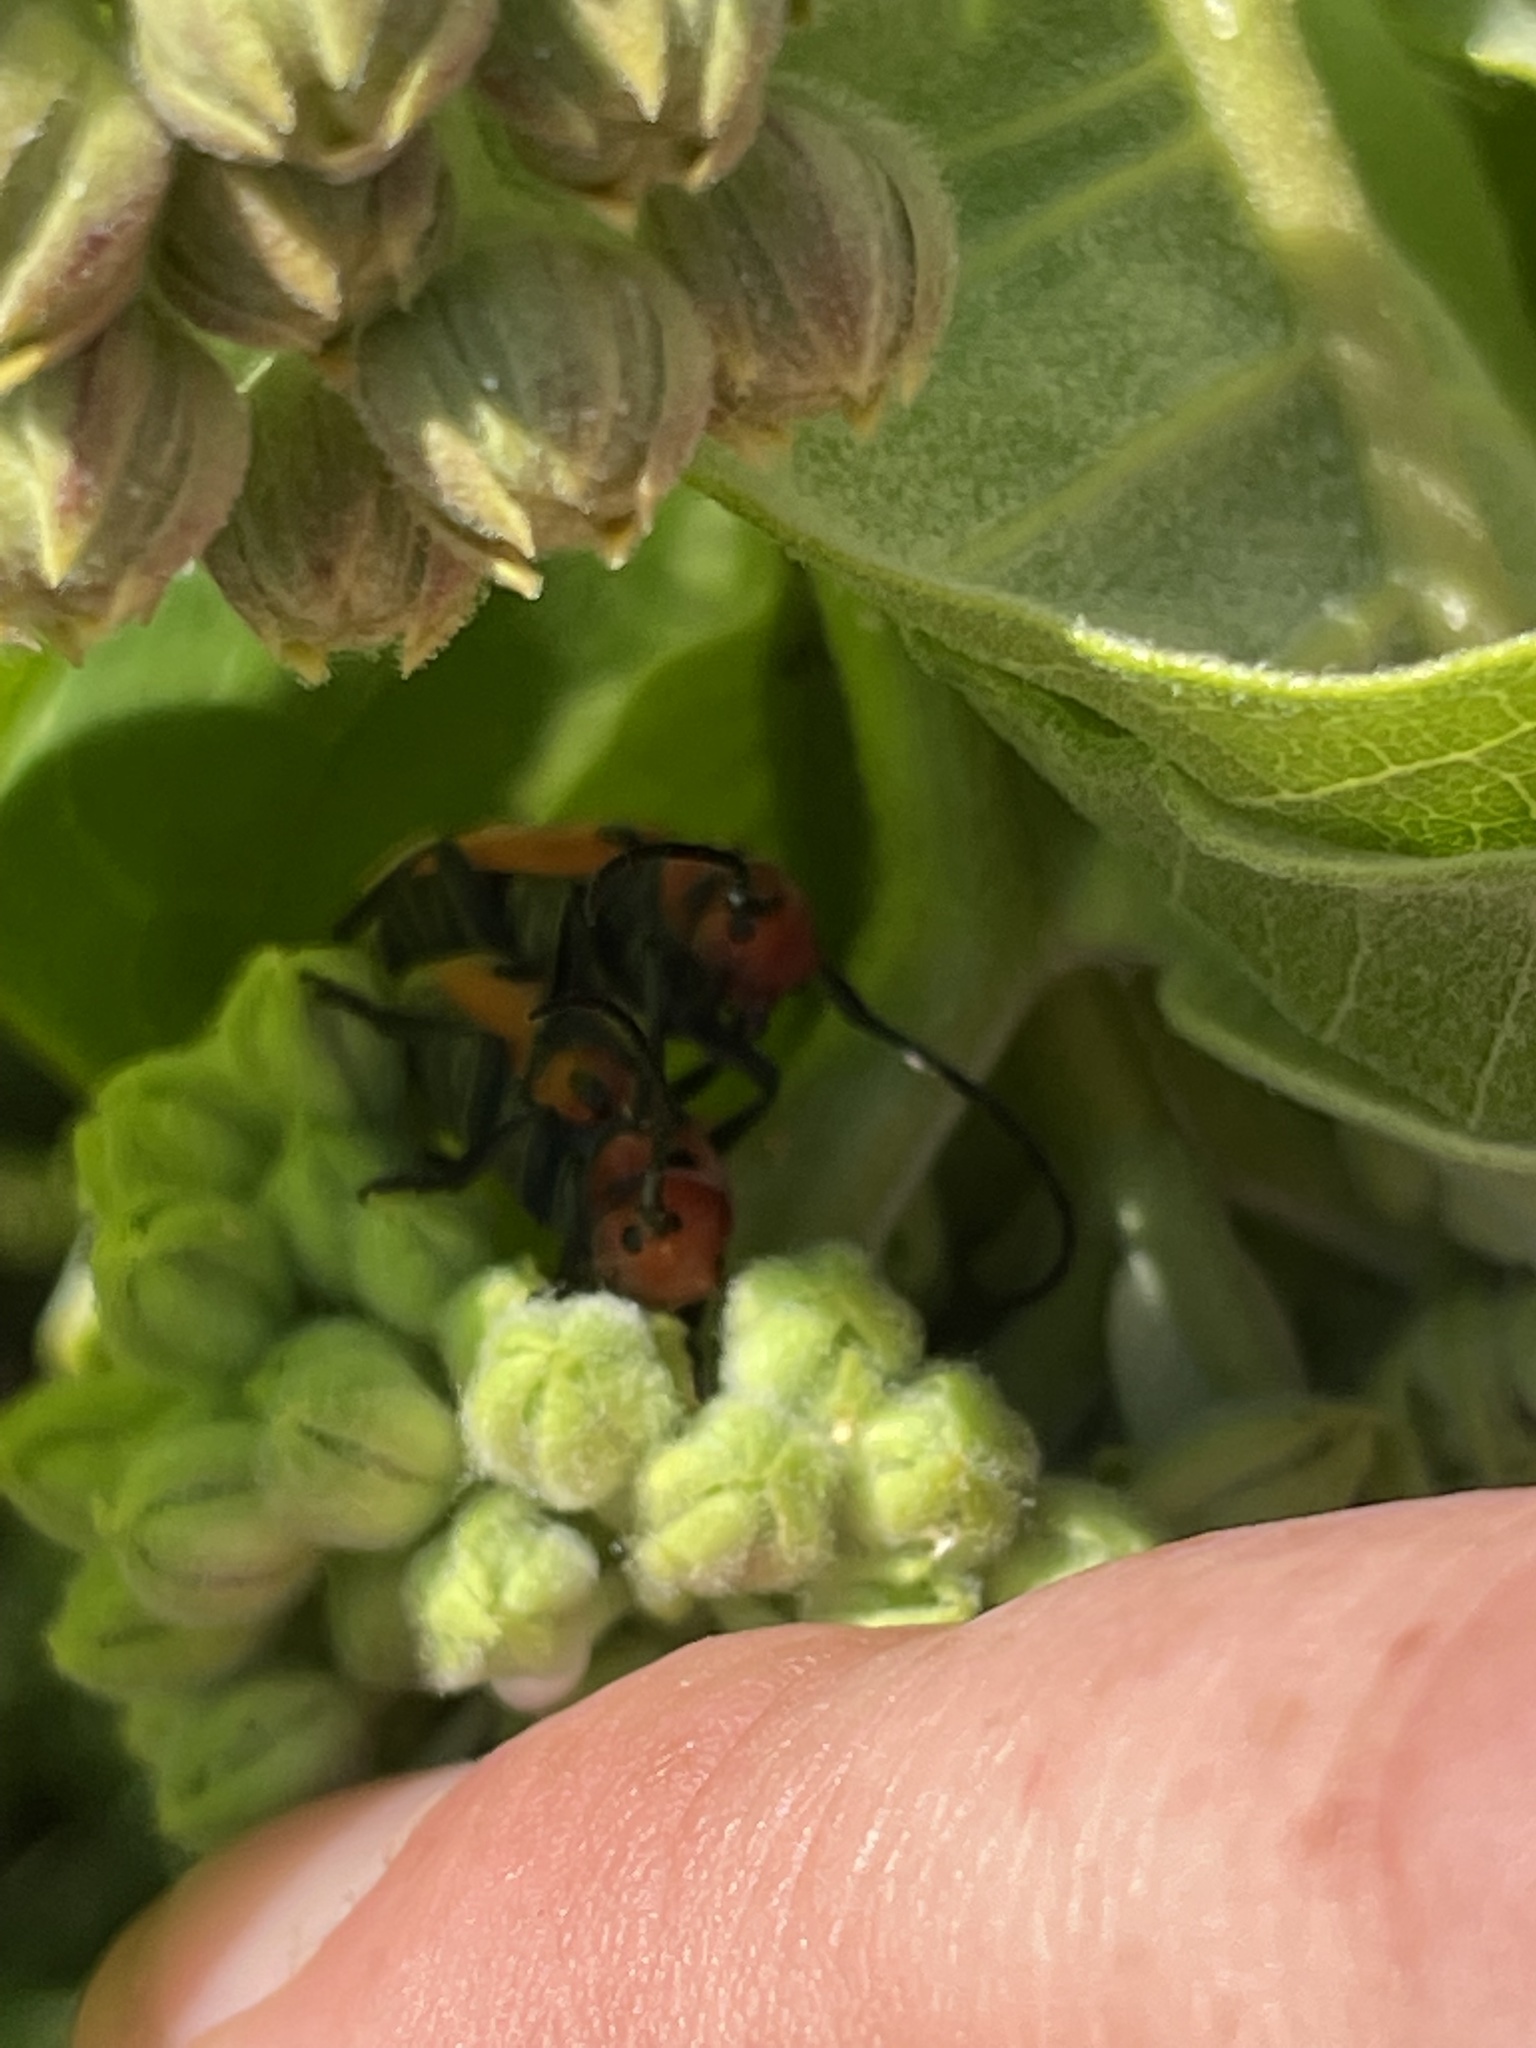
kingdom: Animalia
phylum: Arthropoda
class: Insecta
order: Coleoptera
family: Cerambycidae
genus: Tetraopes
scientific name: Tetraopes tetrophthalmus
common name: Red milkweed beetle
